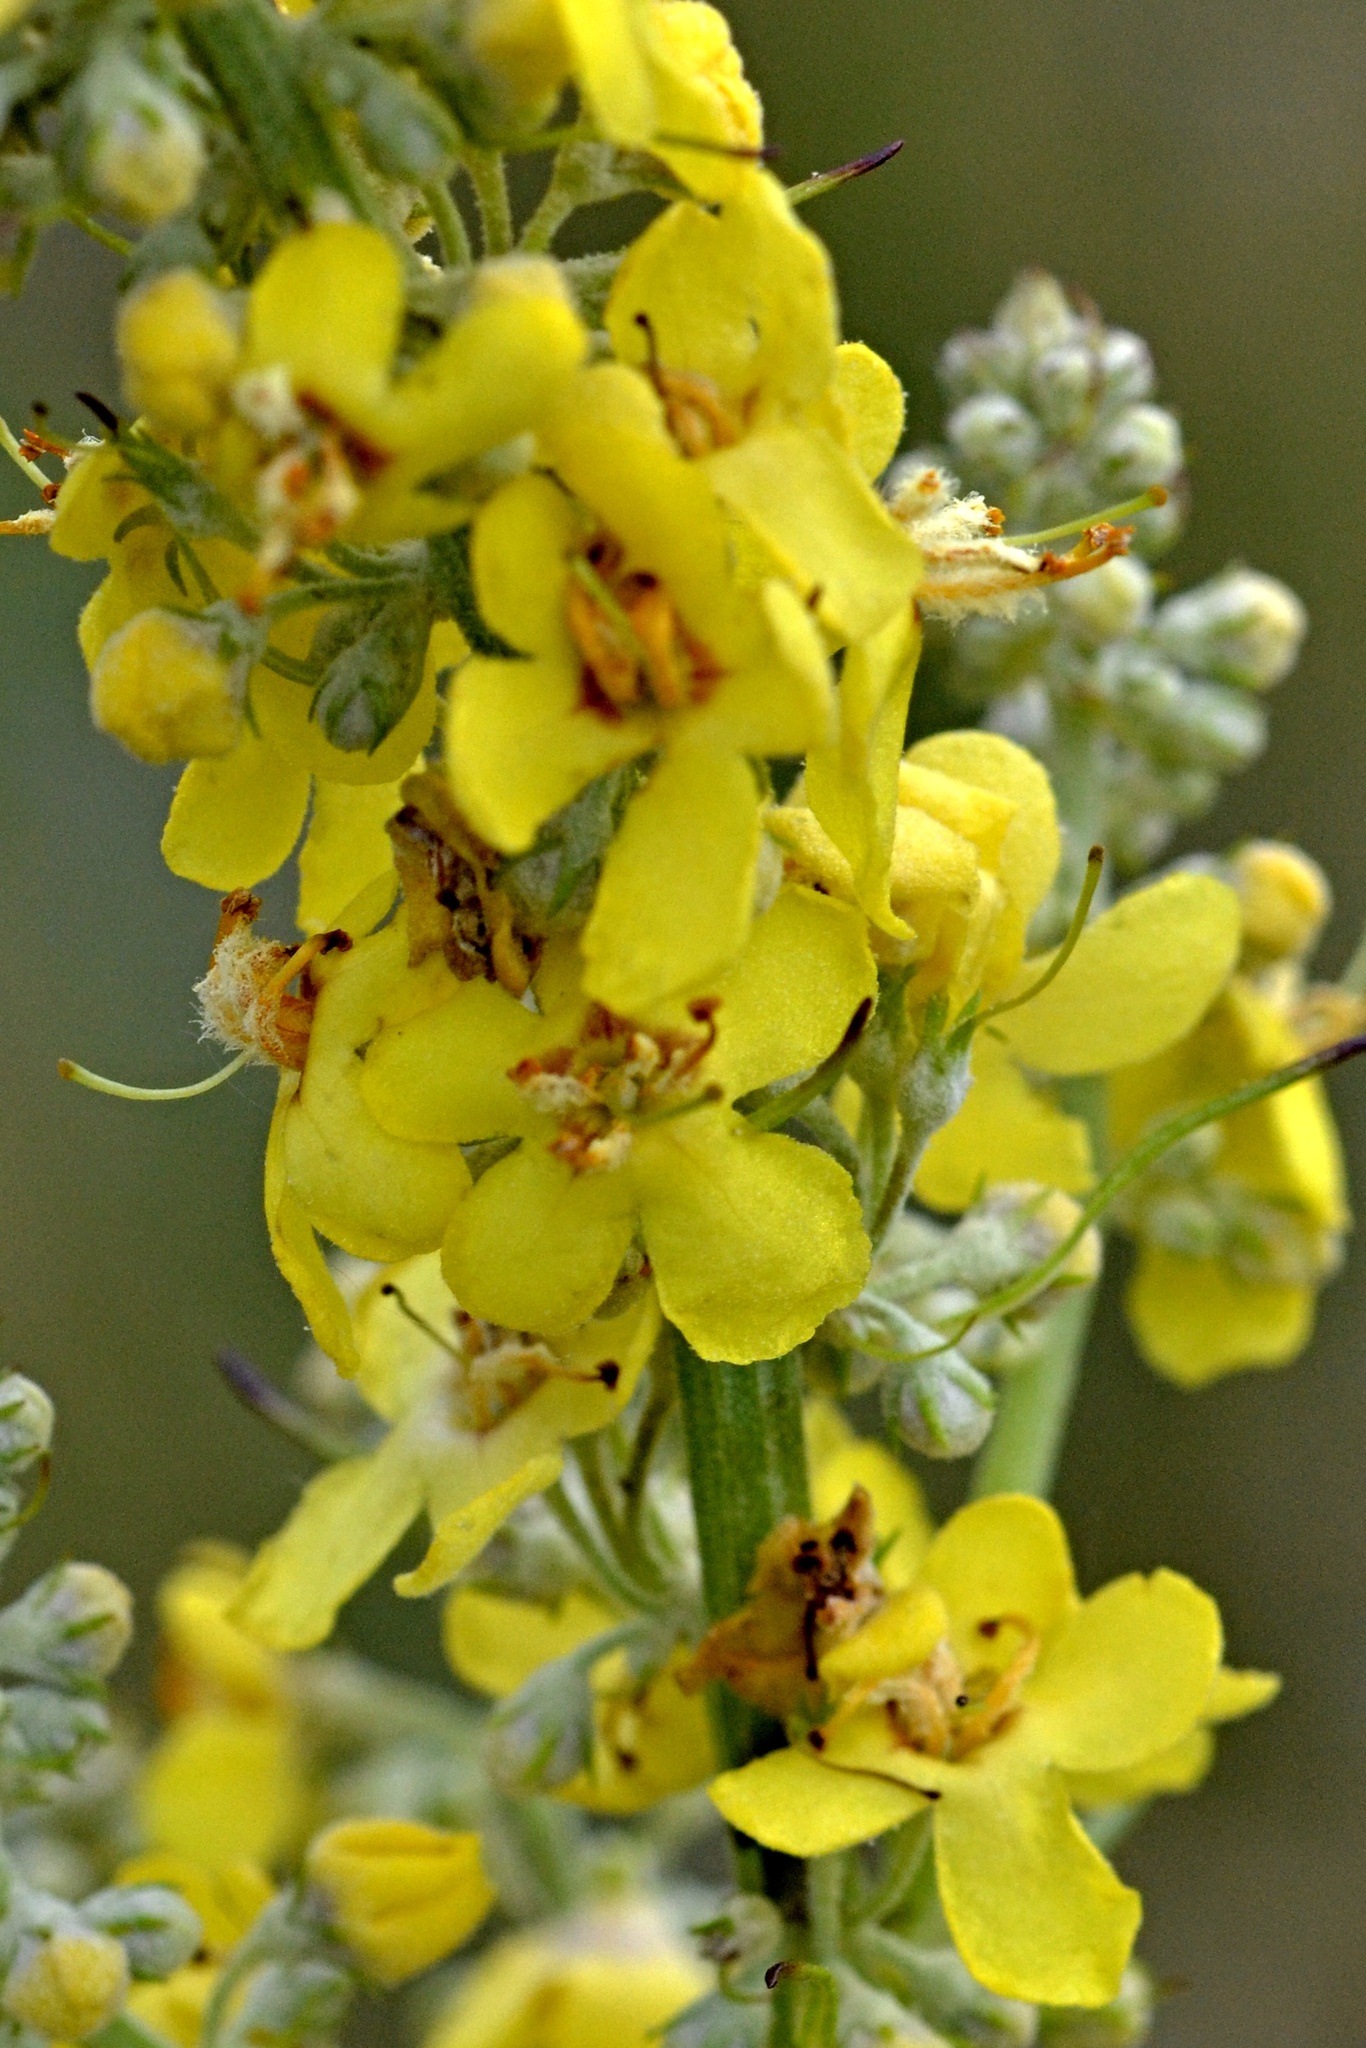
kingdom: Plantae
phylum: Tracheophyta
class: Magnoliopsida
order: Lamiales
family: Scrophulariaceae
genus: Verbascum
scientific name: Verbascum lychnitis
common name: White mullein
